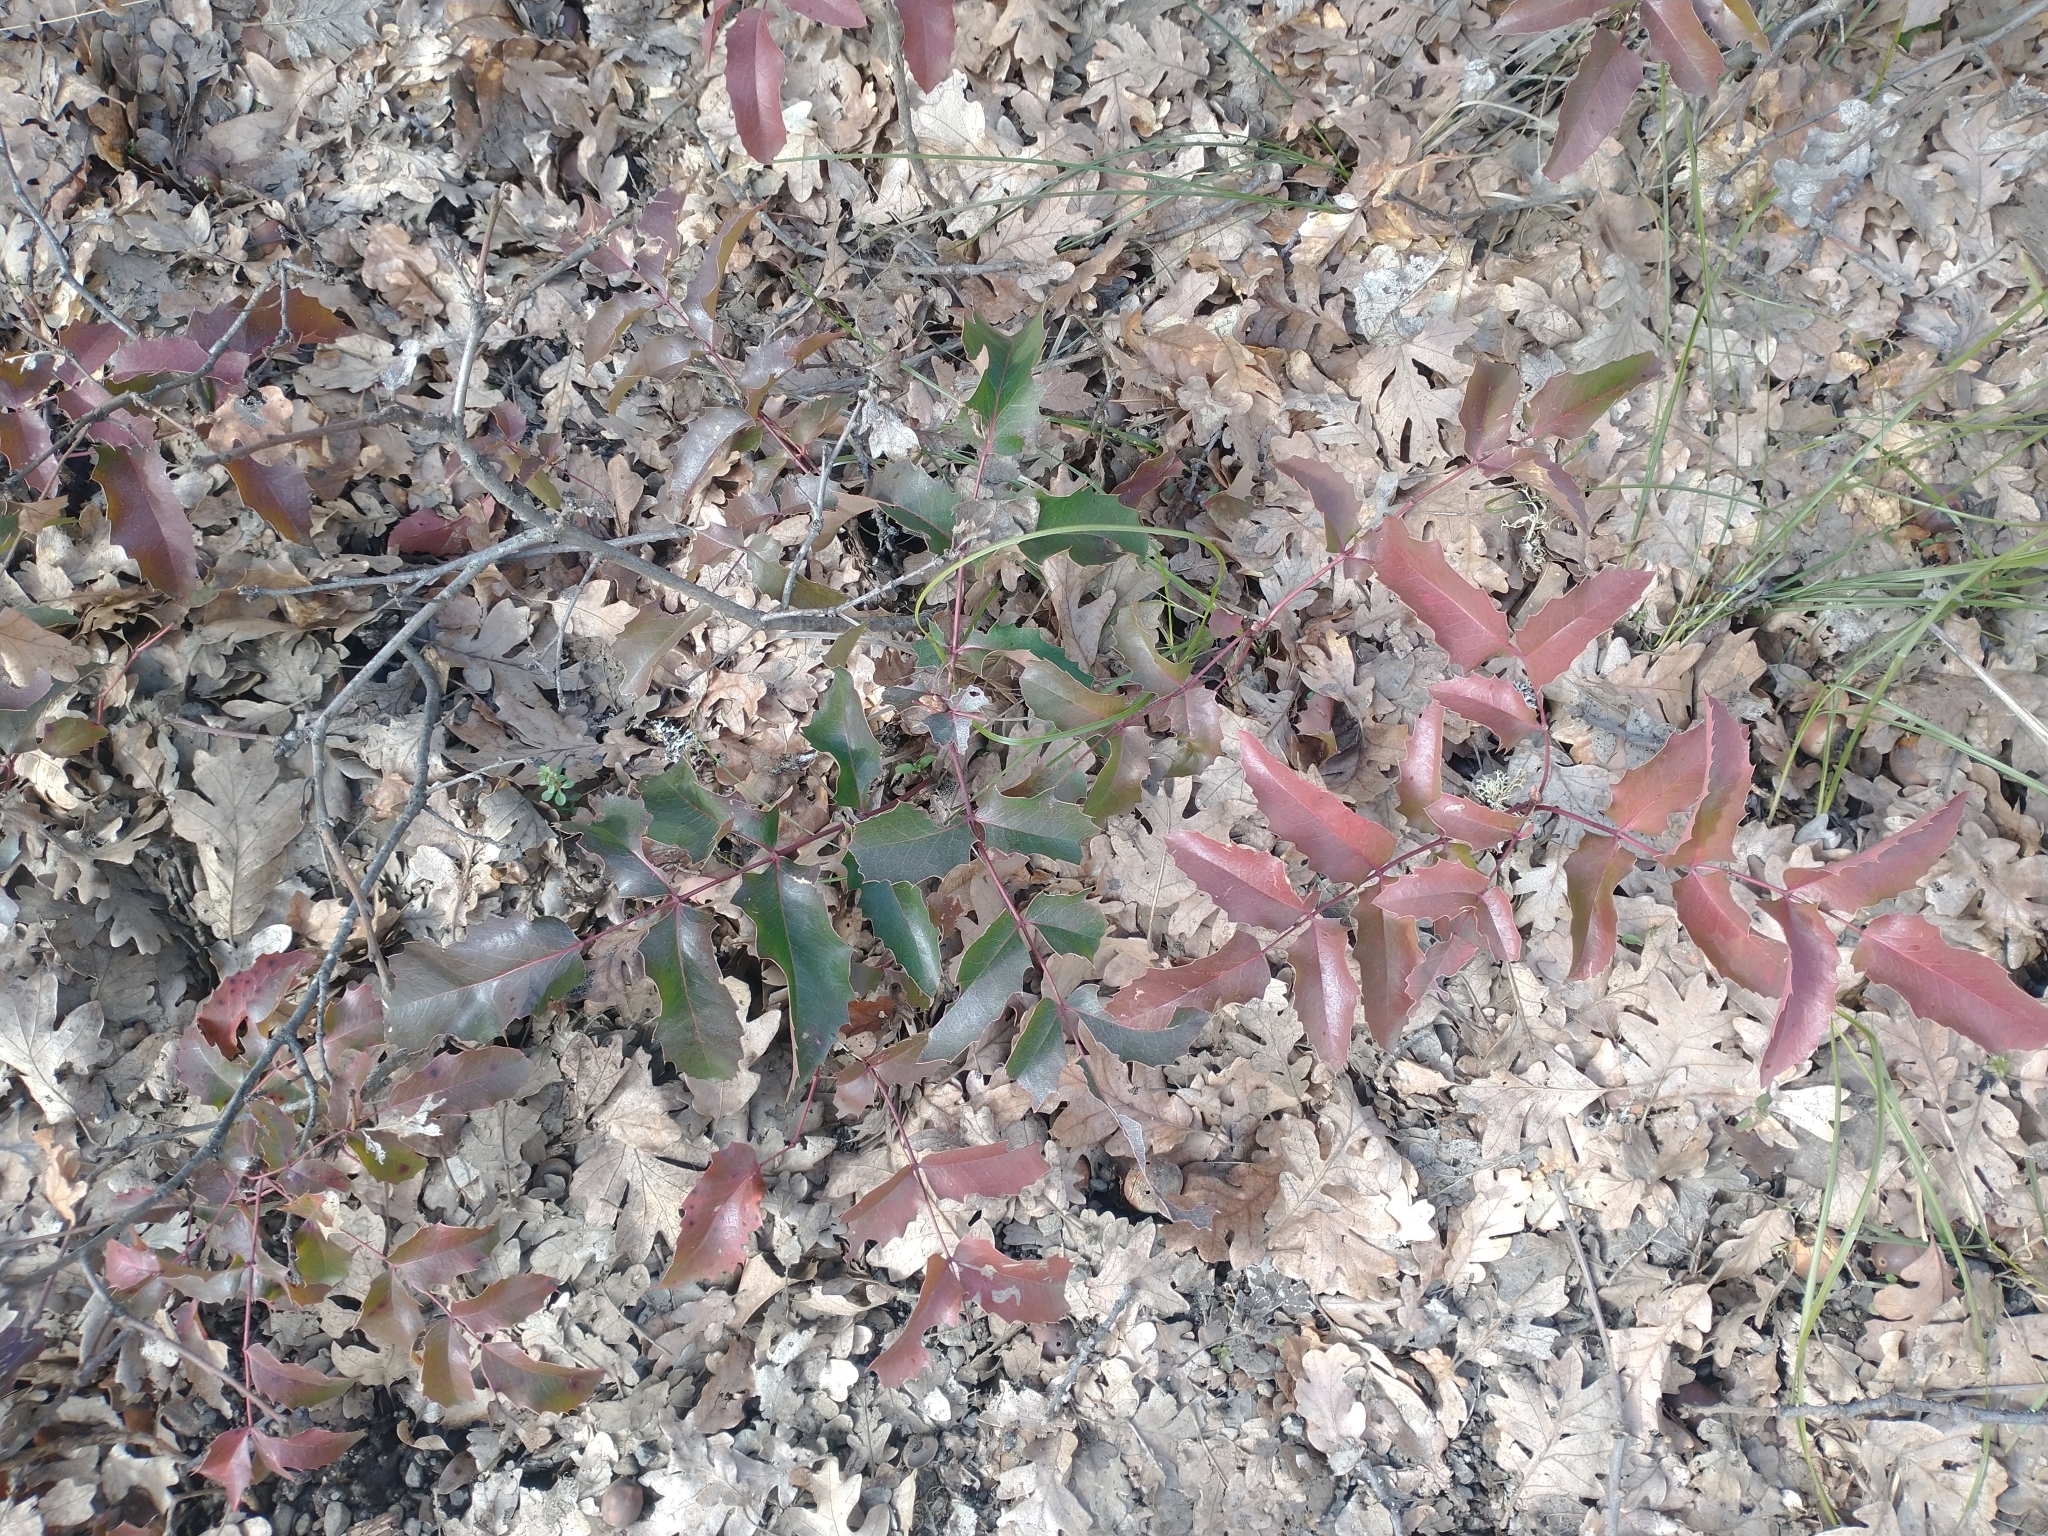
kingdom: Plantae
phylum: Tracheophyta
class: Magnoliopsida
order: Ranunculales
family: Berberidaceae
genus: Mahonia
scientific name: Mahonia aquifolium
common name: Oregon-grape
